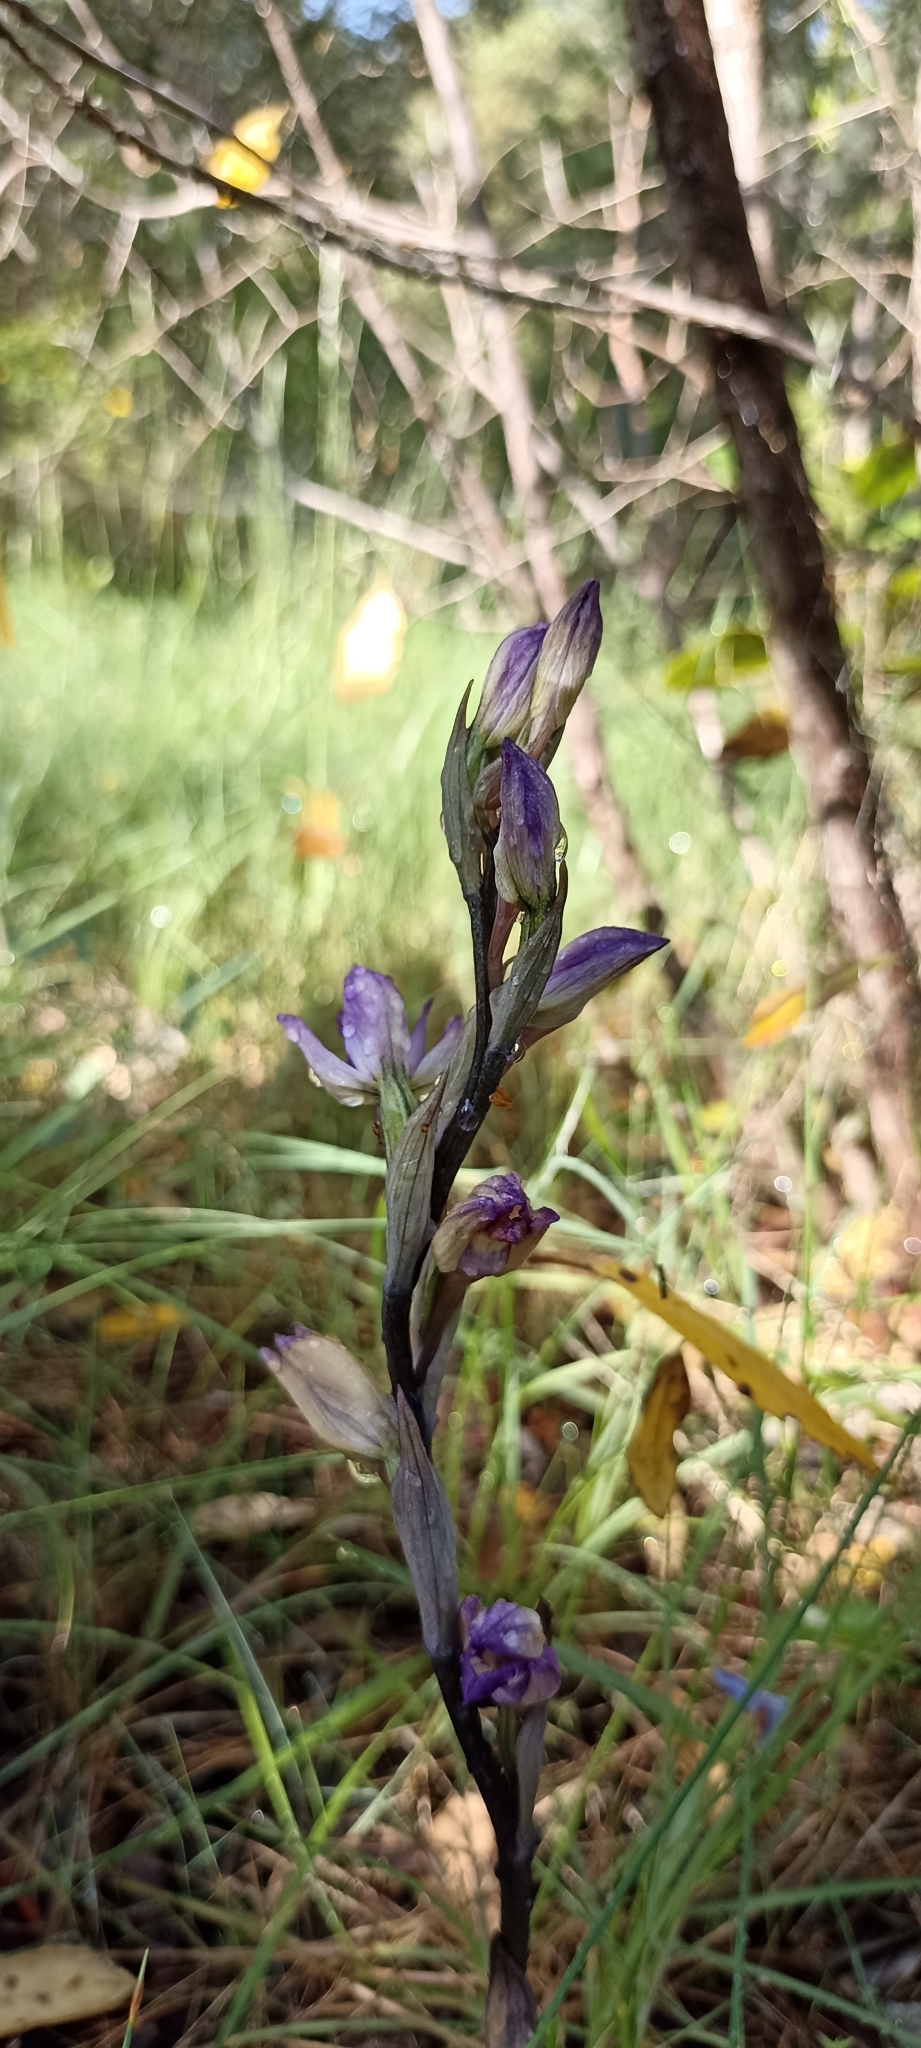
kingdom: Plantae
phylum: Tracheophyta
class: Liliopsida
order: Asparagales
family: Orchidaceae
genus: Limodorum
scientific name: Limodorum abortivum
